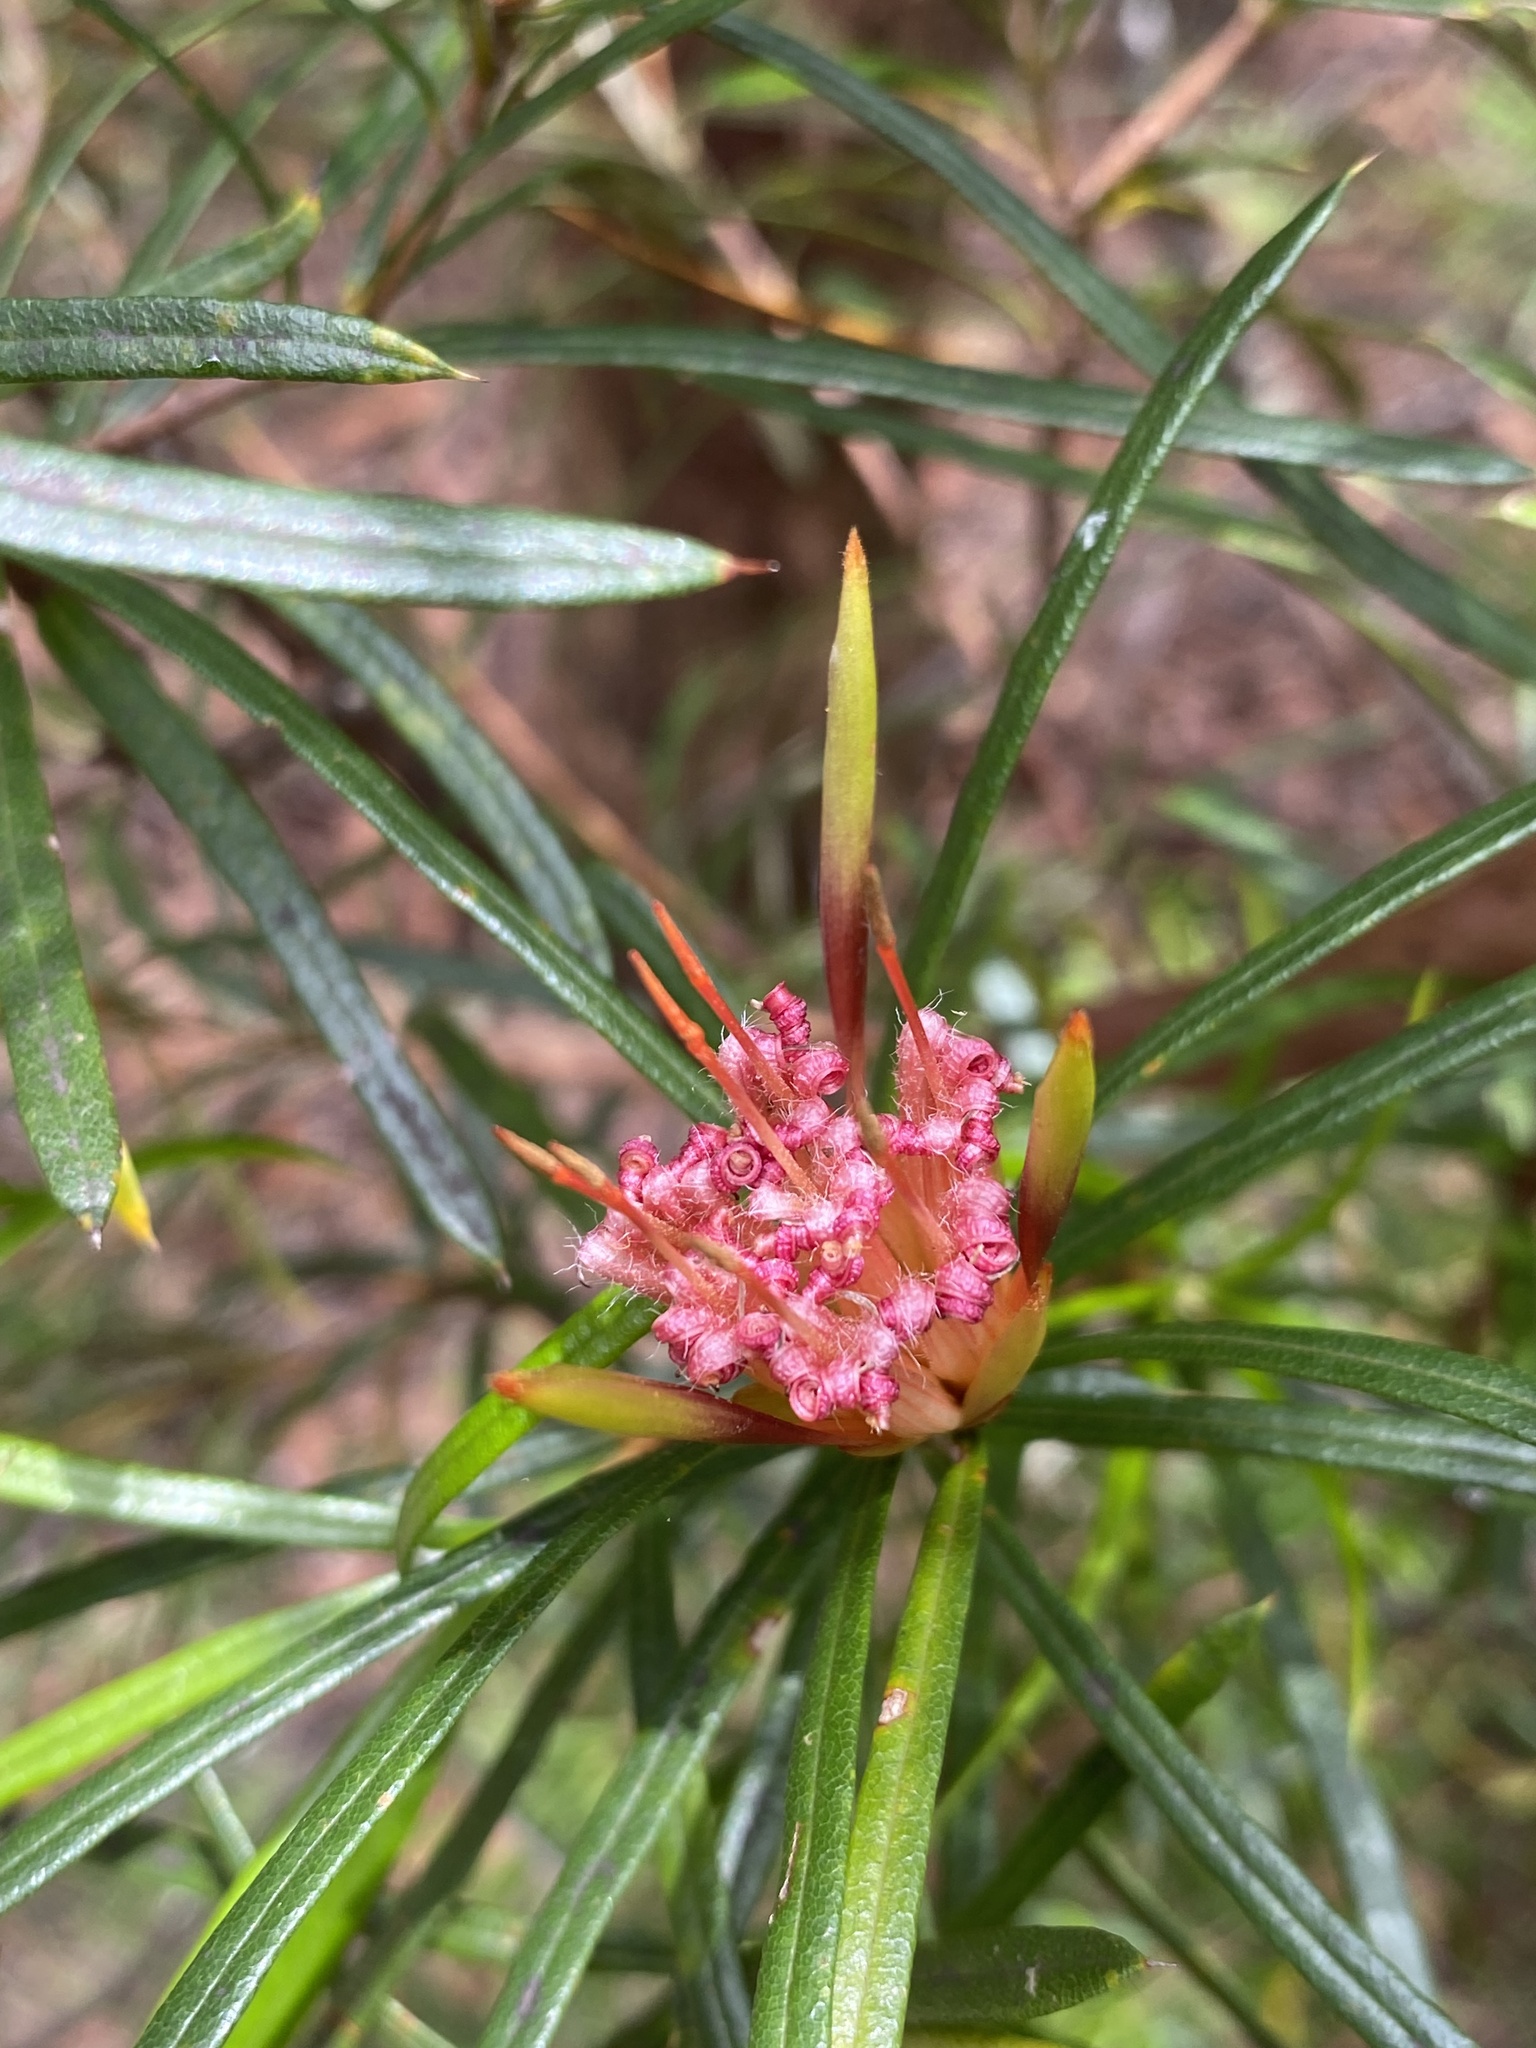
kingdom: Plantae
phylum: Tracheophyta
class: Magnoliopsida
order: Proteales
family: Proteaceae
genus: Lambertia
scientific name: Lambertia formosa
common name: Mountain-devil
